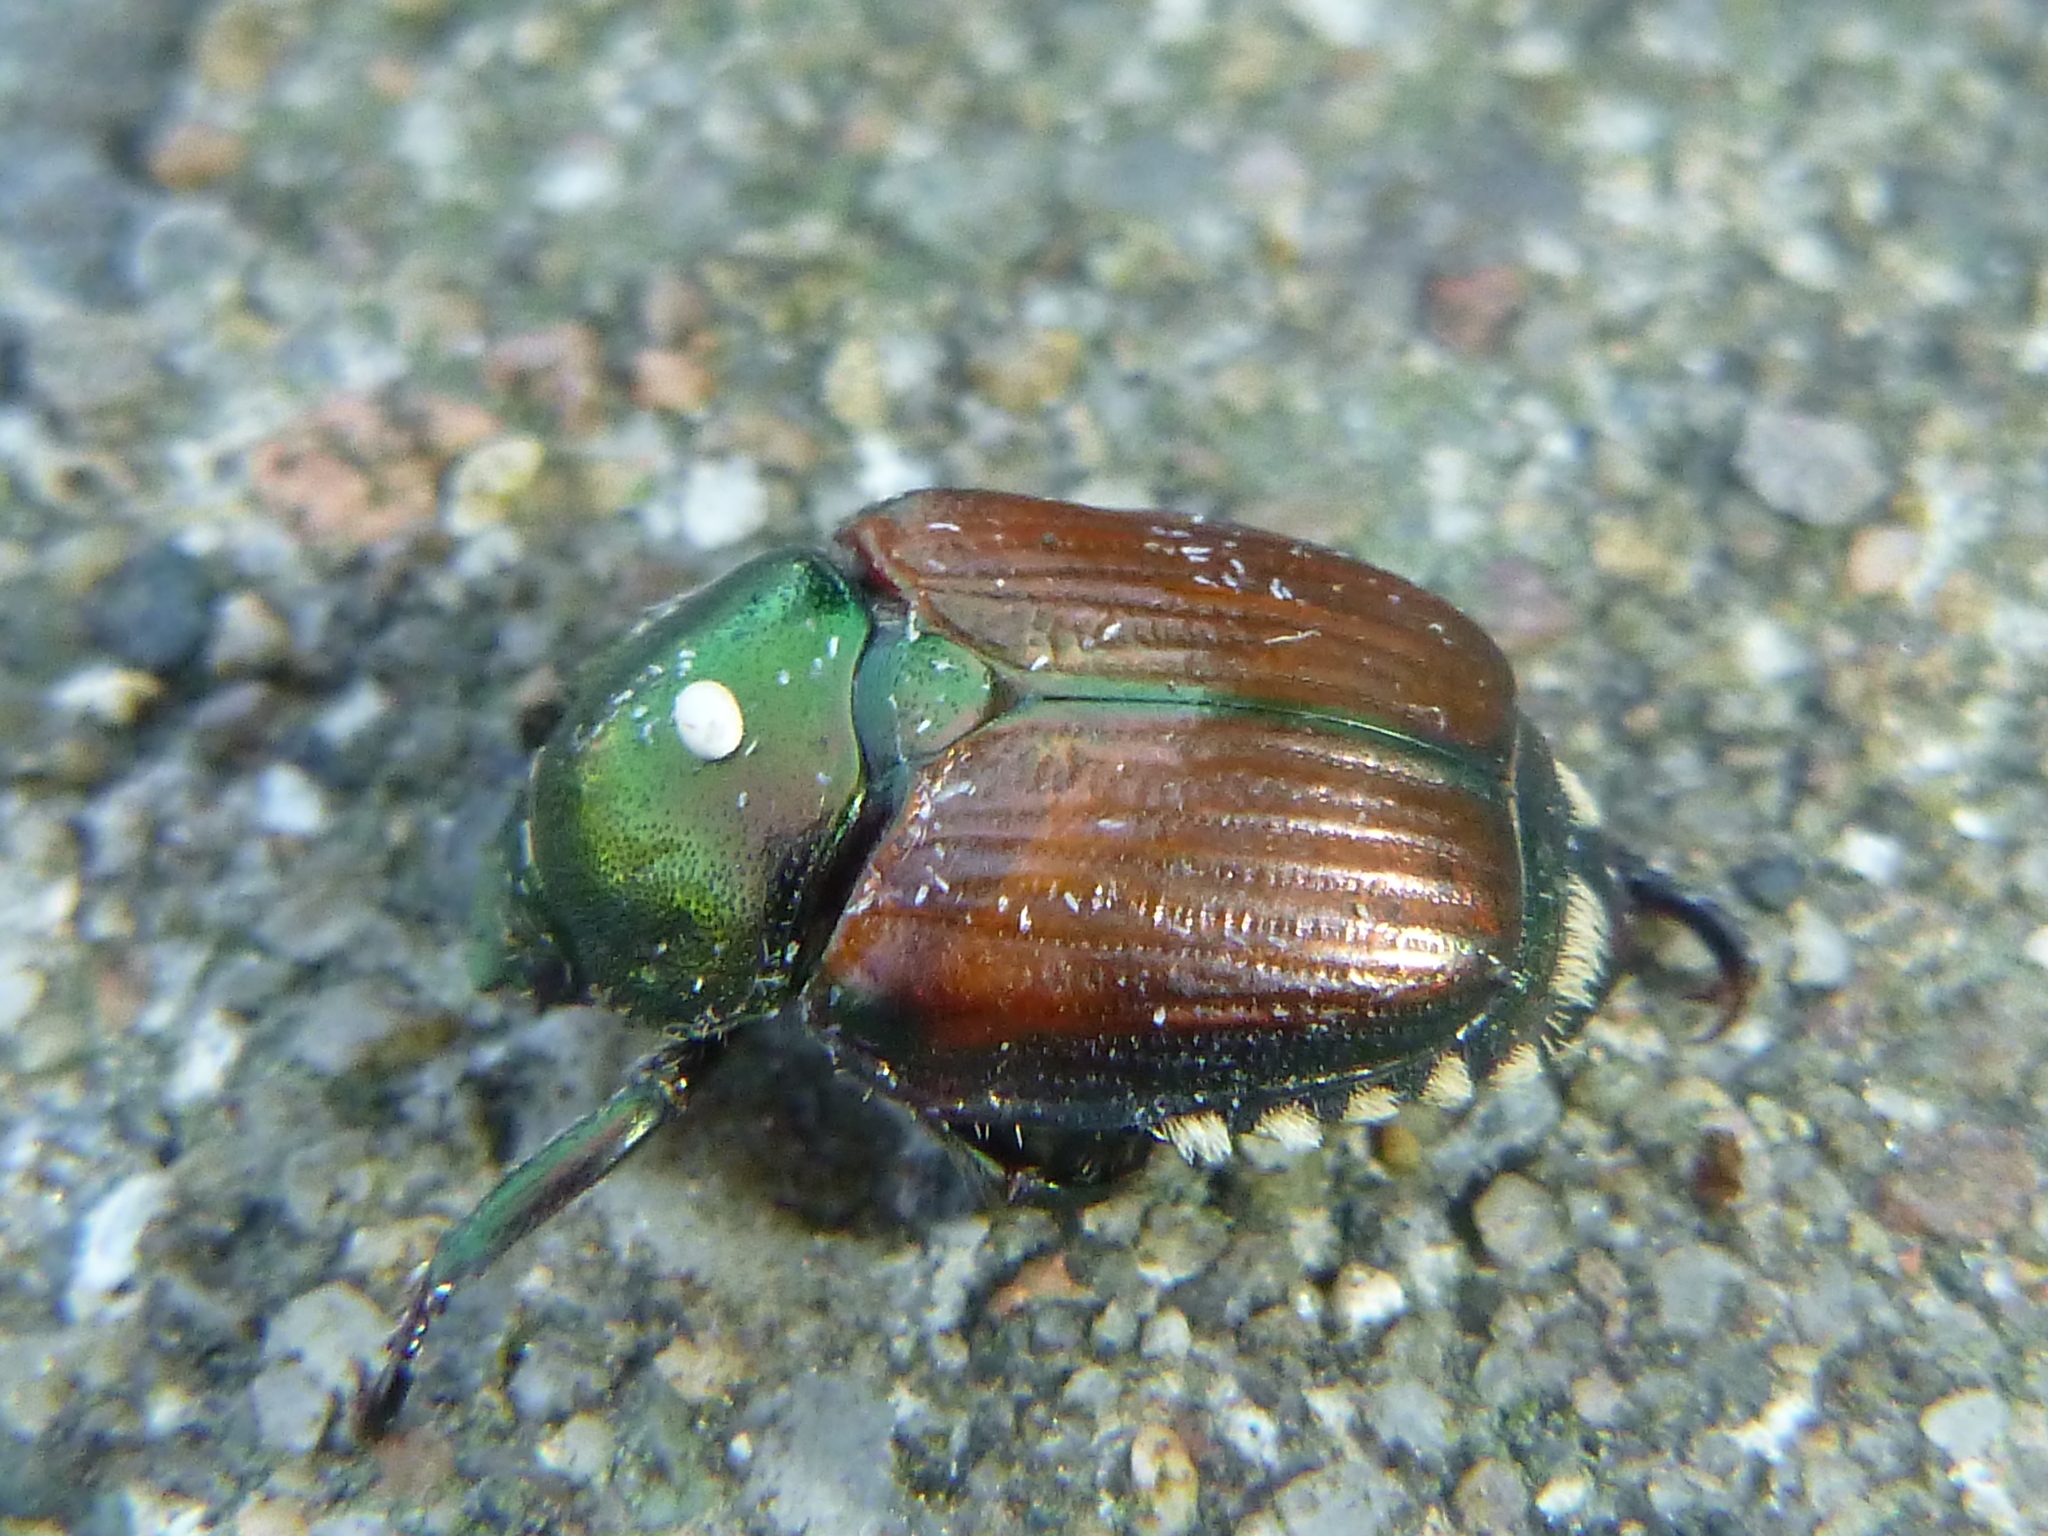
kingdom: Animalia
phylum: Arthropoda
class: Insecta
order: Coleoptera
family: Scarabaeidae
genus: Popillia
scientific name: Popillia japonica
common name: Japanese beetle
